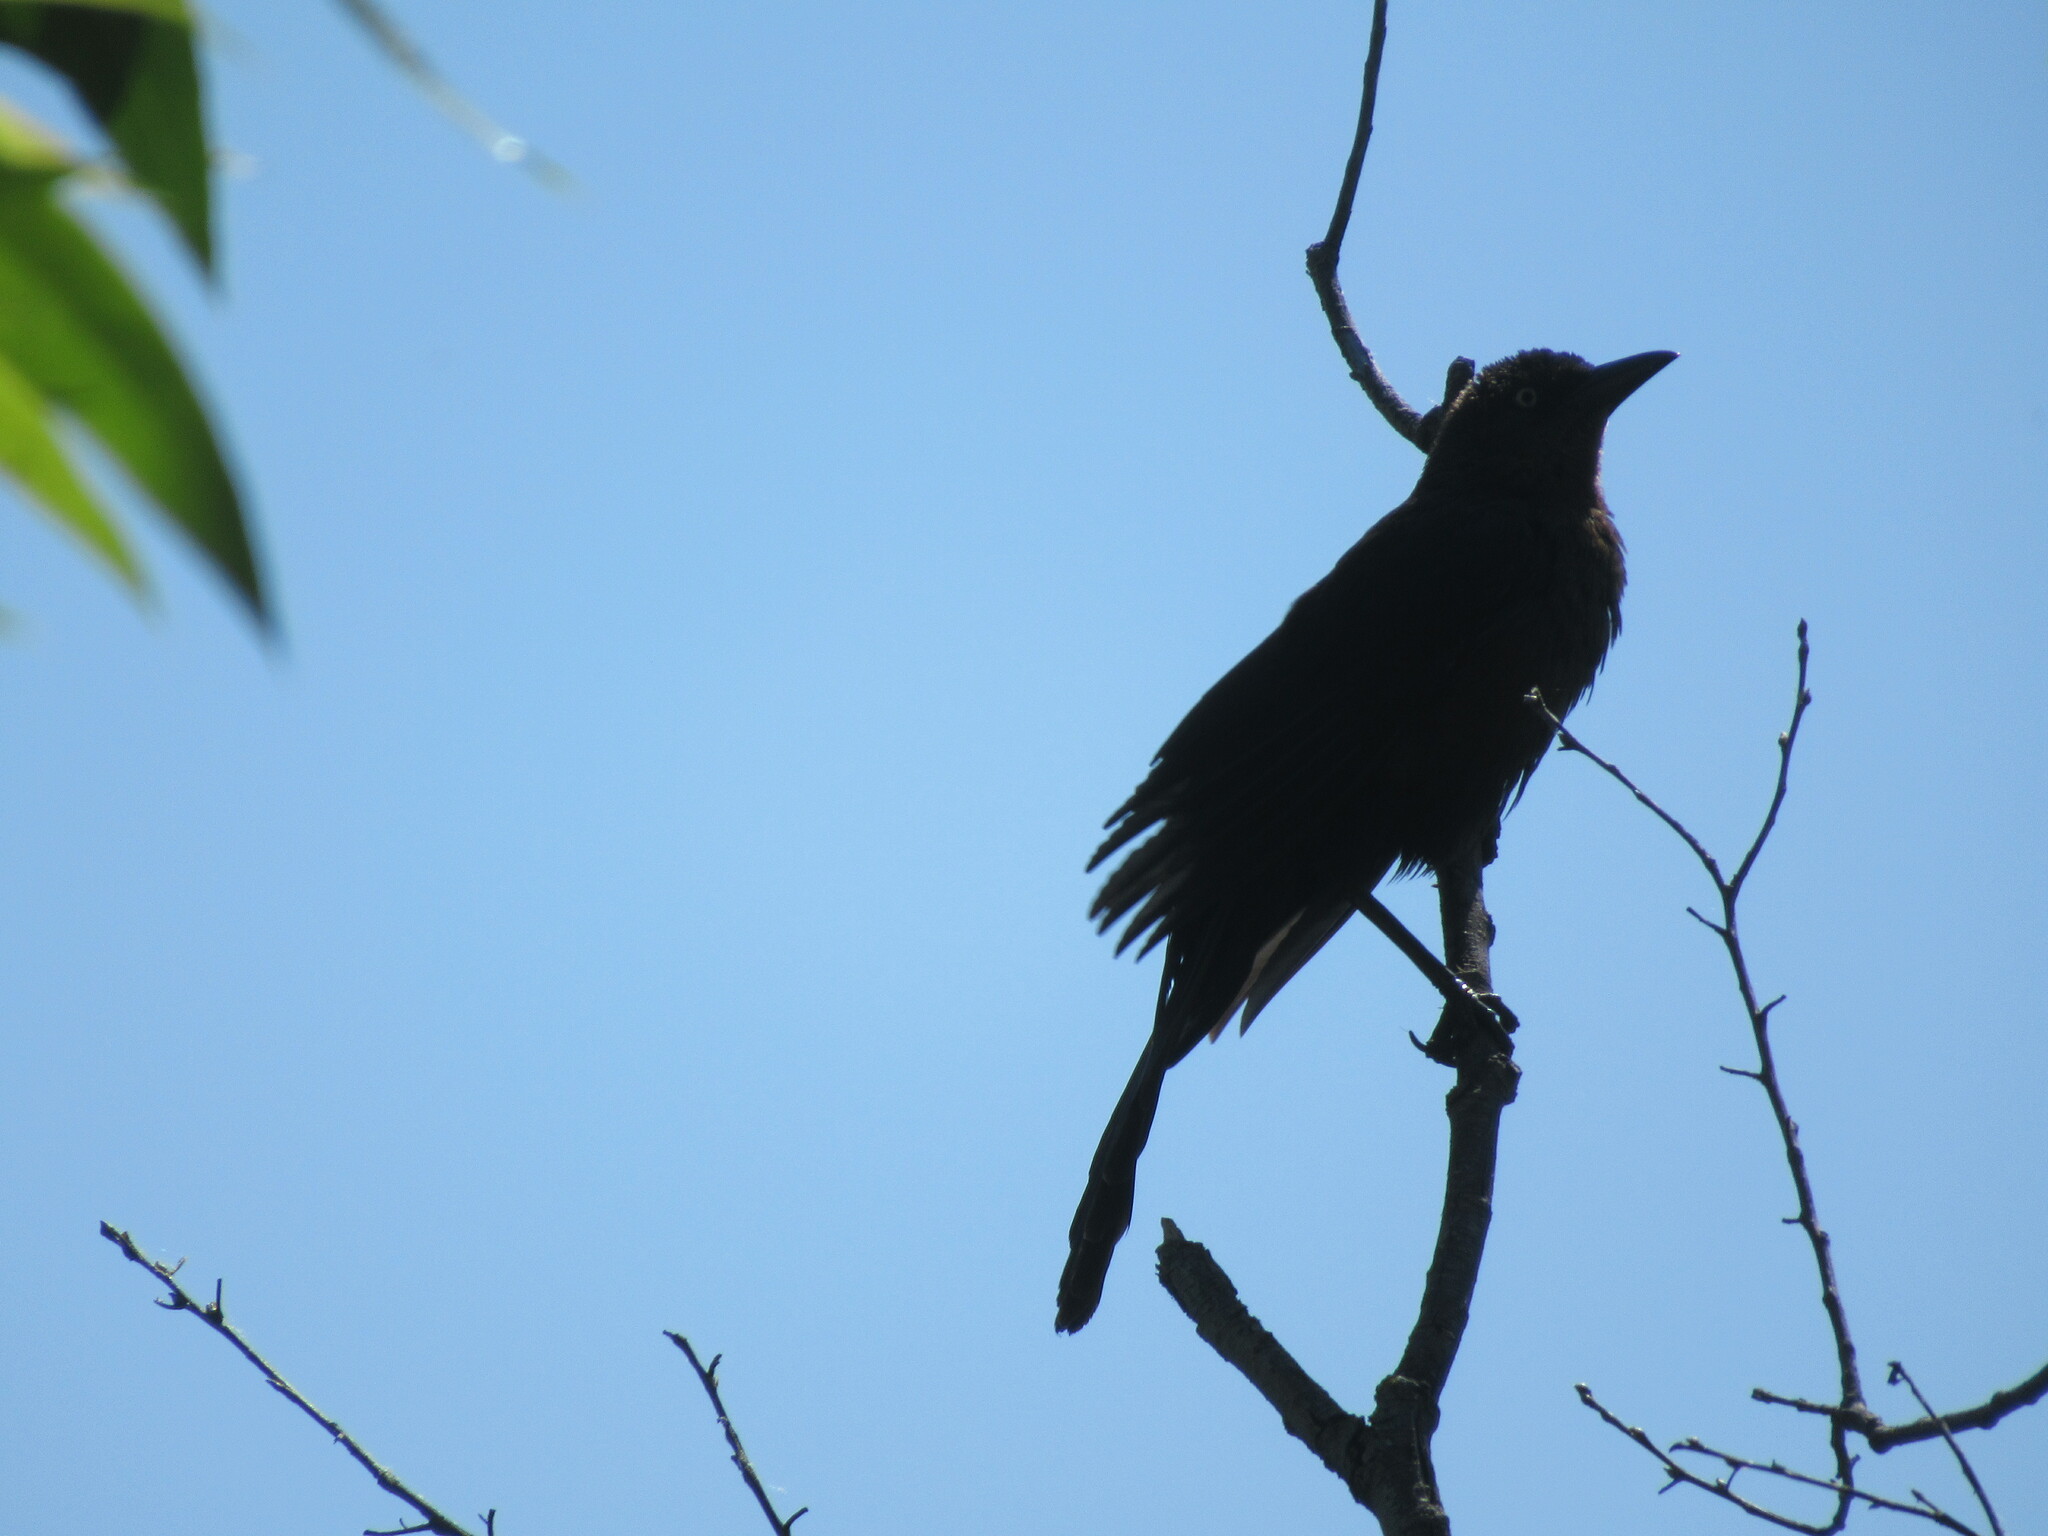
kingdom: Animalia
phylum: Chordata
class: Aves
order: Passeriformes
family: Icteridae
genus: Quiscalus
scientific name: Quiscalus mexicanus
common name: Great-tailed grackle
